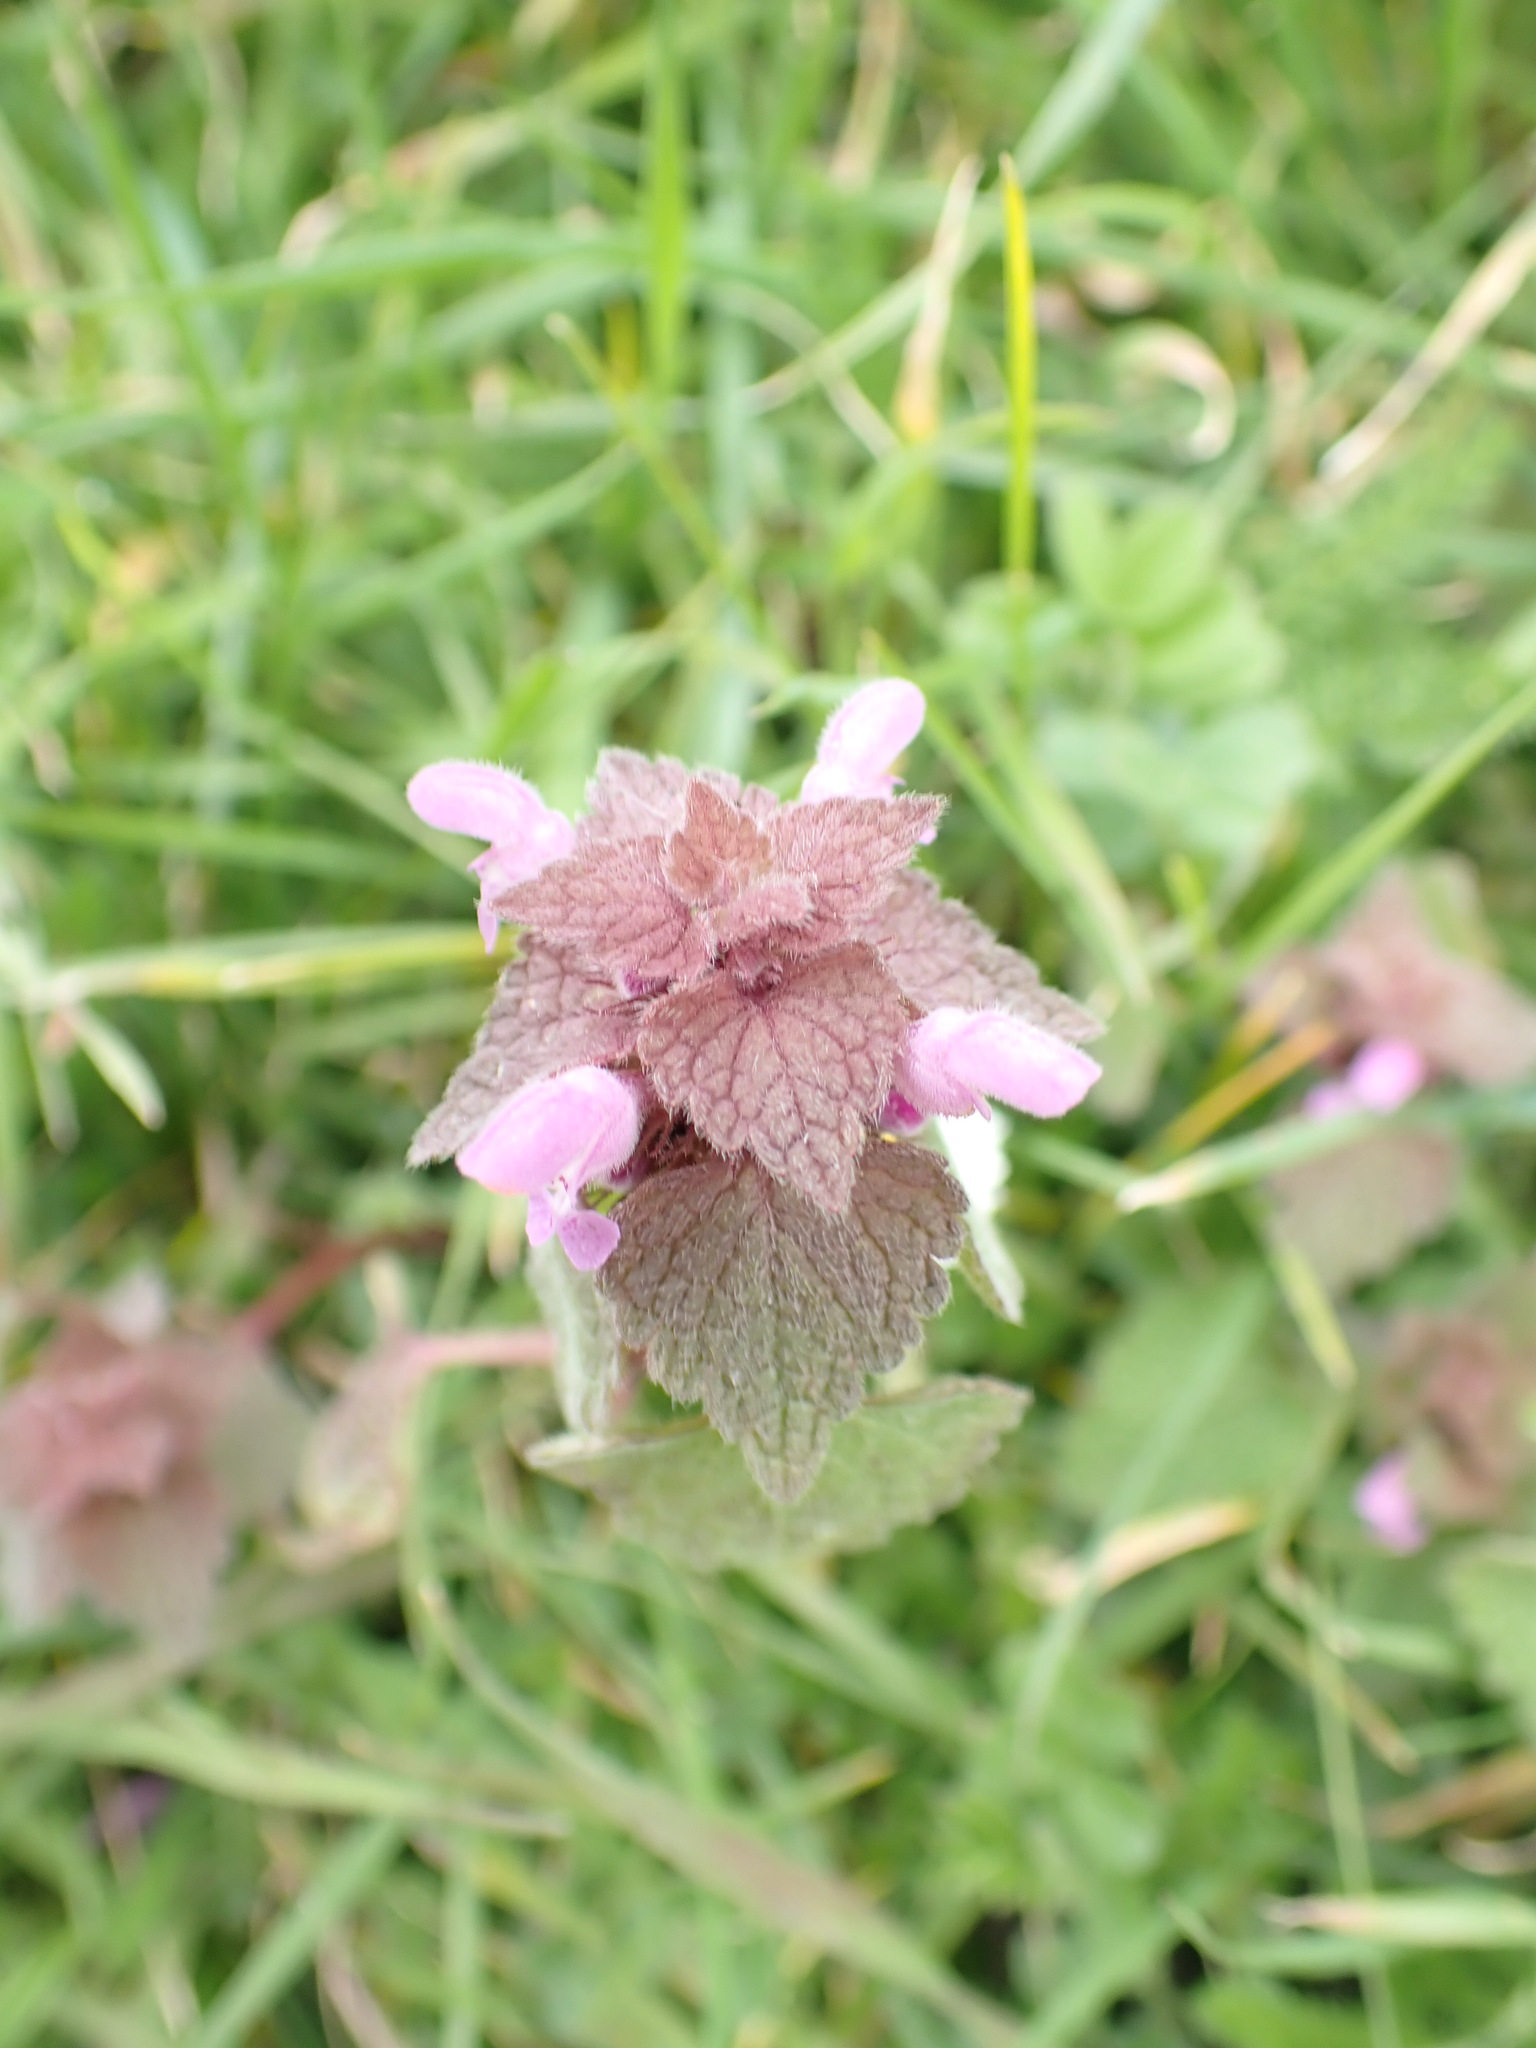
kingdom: Plantae
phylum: Tracheophyta
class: Magnoliopsida
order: Lamiales
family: Lamiaceae
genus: Lamium
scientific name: Lamium purpureum
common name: Red dead-nettle
